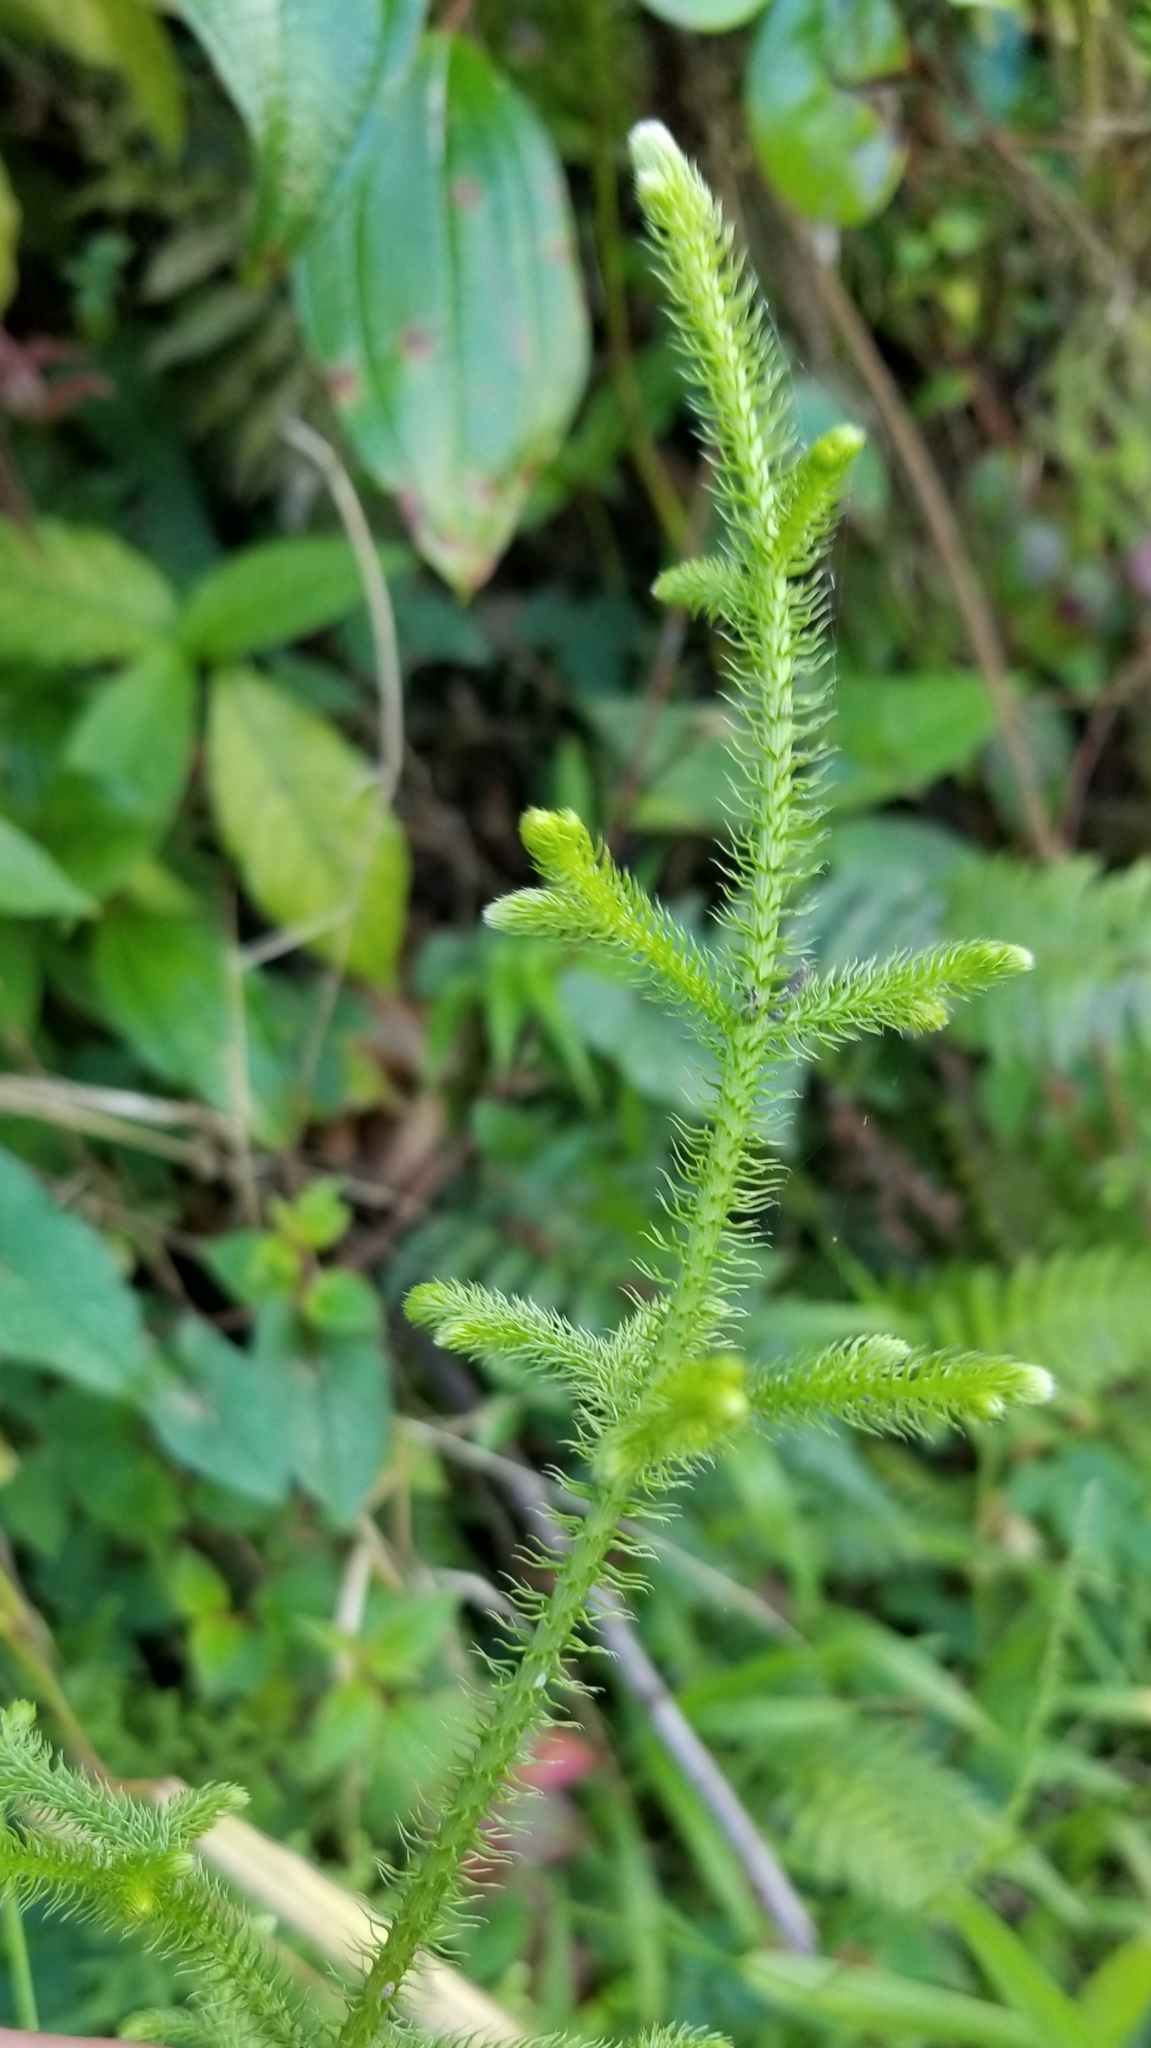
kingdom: Plantae
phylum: Tracheophyta
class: Lycopodiopsida
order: Lycopodiales
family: Lycopodiaceae
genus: Palhinhaea
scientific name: Palhinhaea cernua
